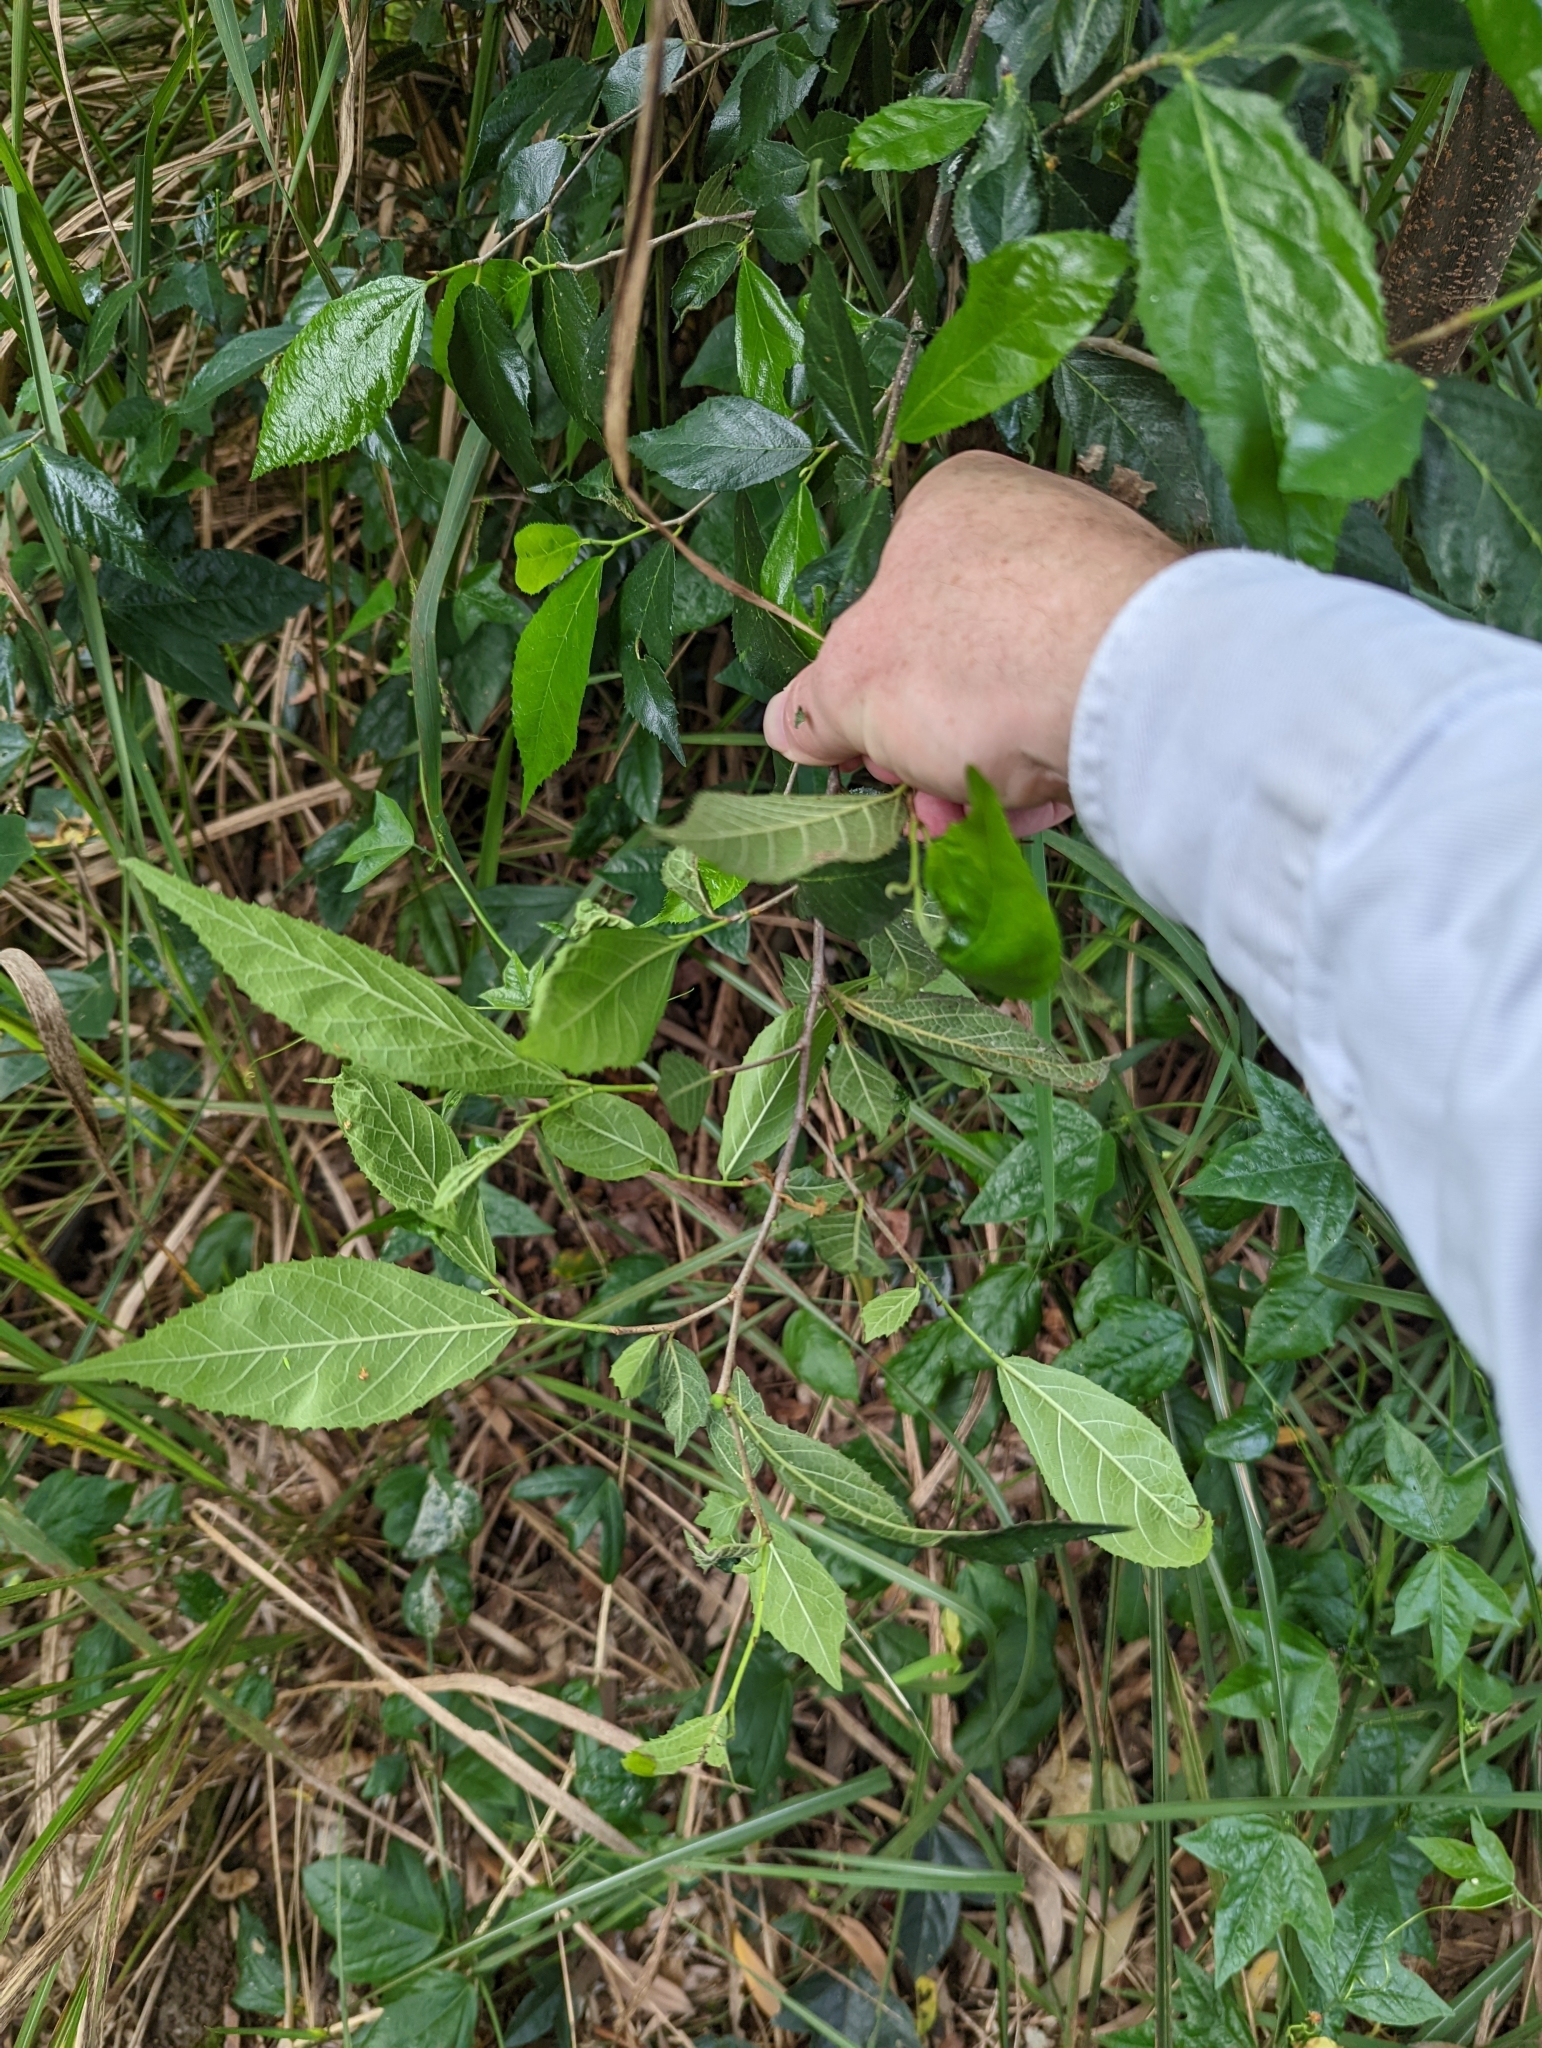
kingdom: Plantae
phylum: Tracheophyta
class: Magnoliopsida
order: Rosales
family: Moraceae
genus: Paratrophis
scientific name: Paratrophis pendulina
